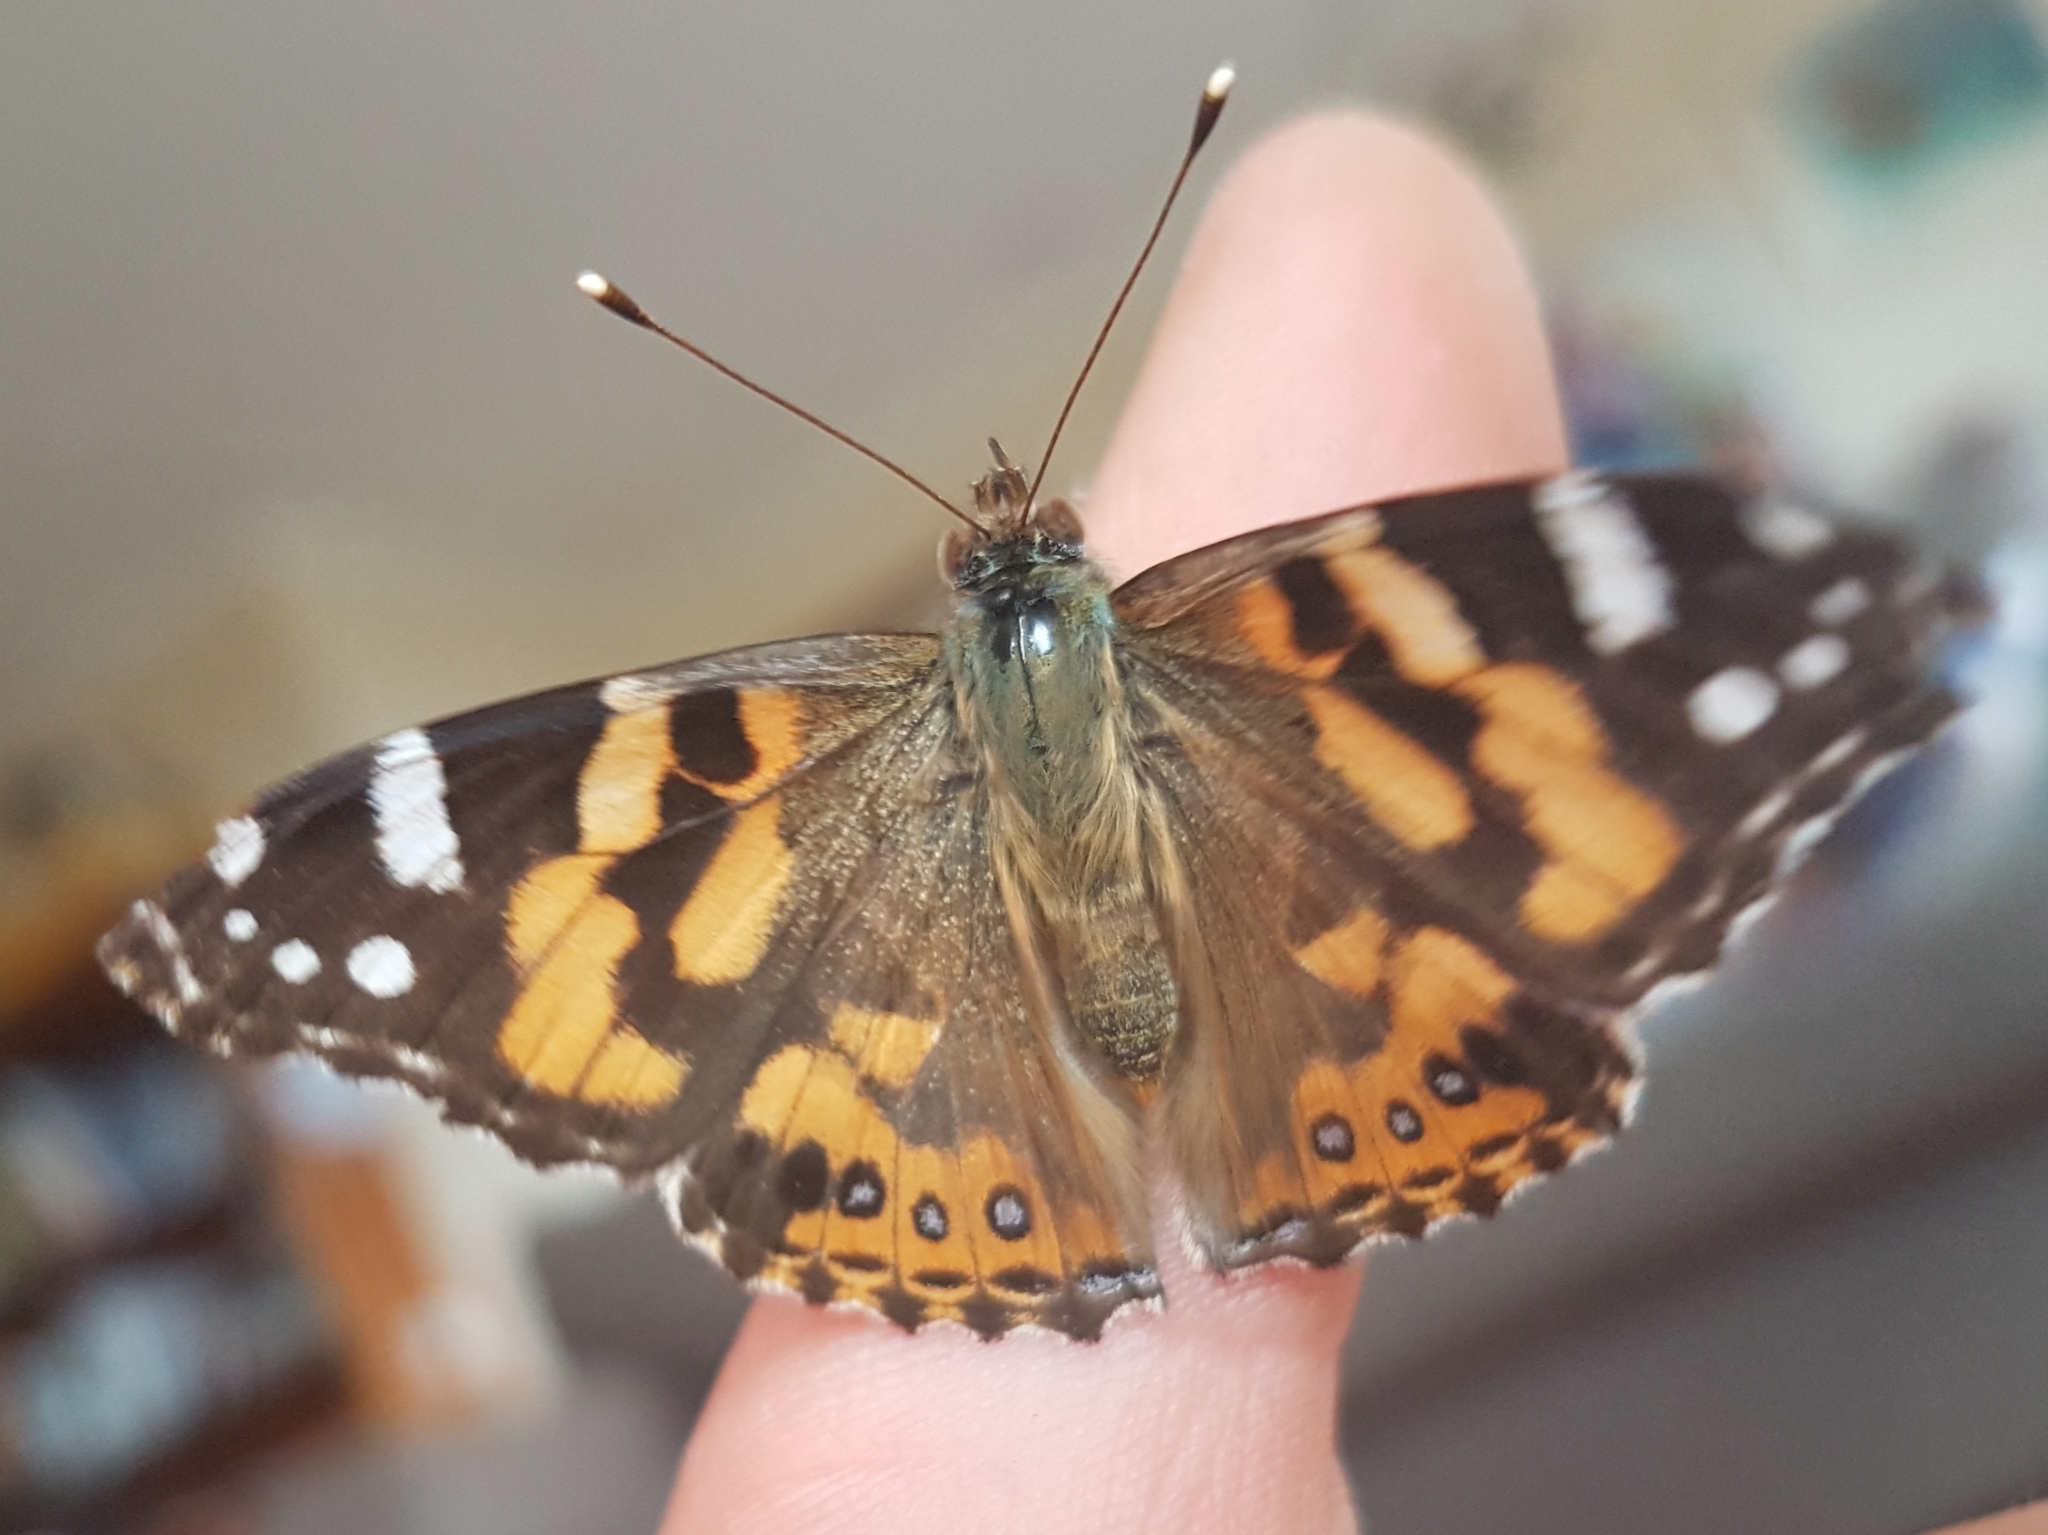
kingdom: Animalia
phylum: Arthropoda
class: Insecta
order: Lepidoptera
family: Nymphalidae
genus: Vanessa
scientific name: Vanessa kershawi
